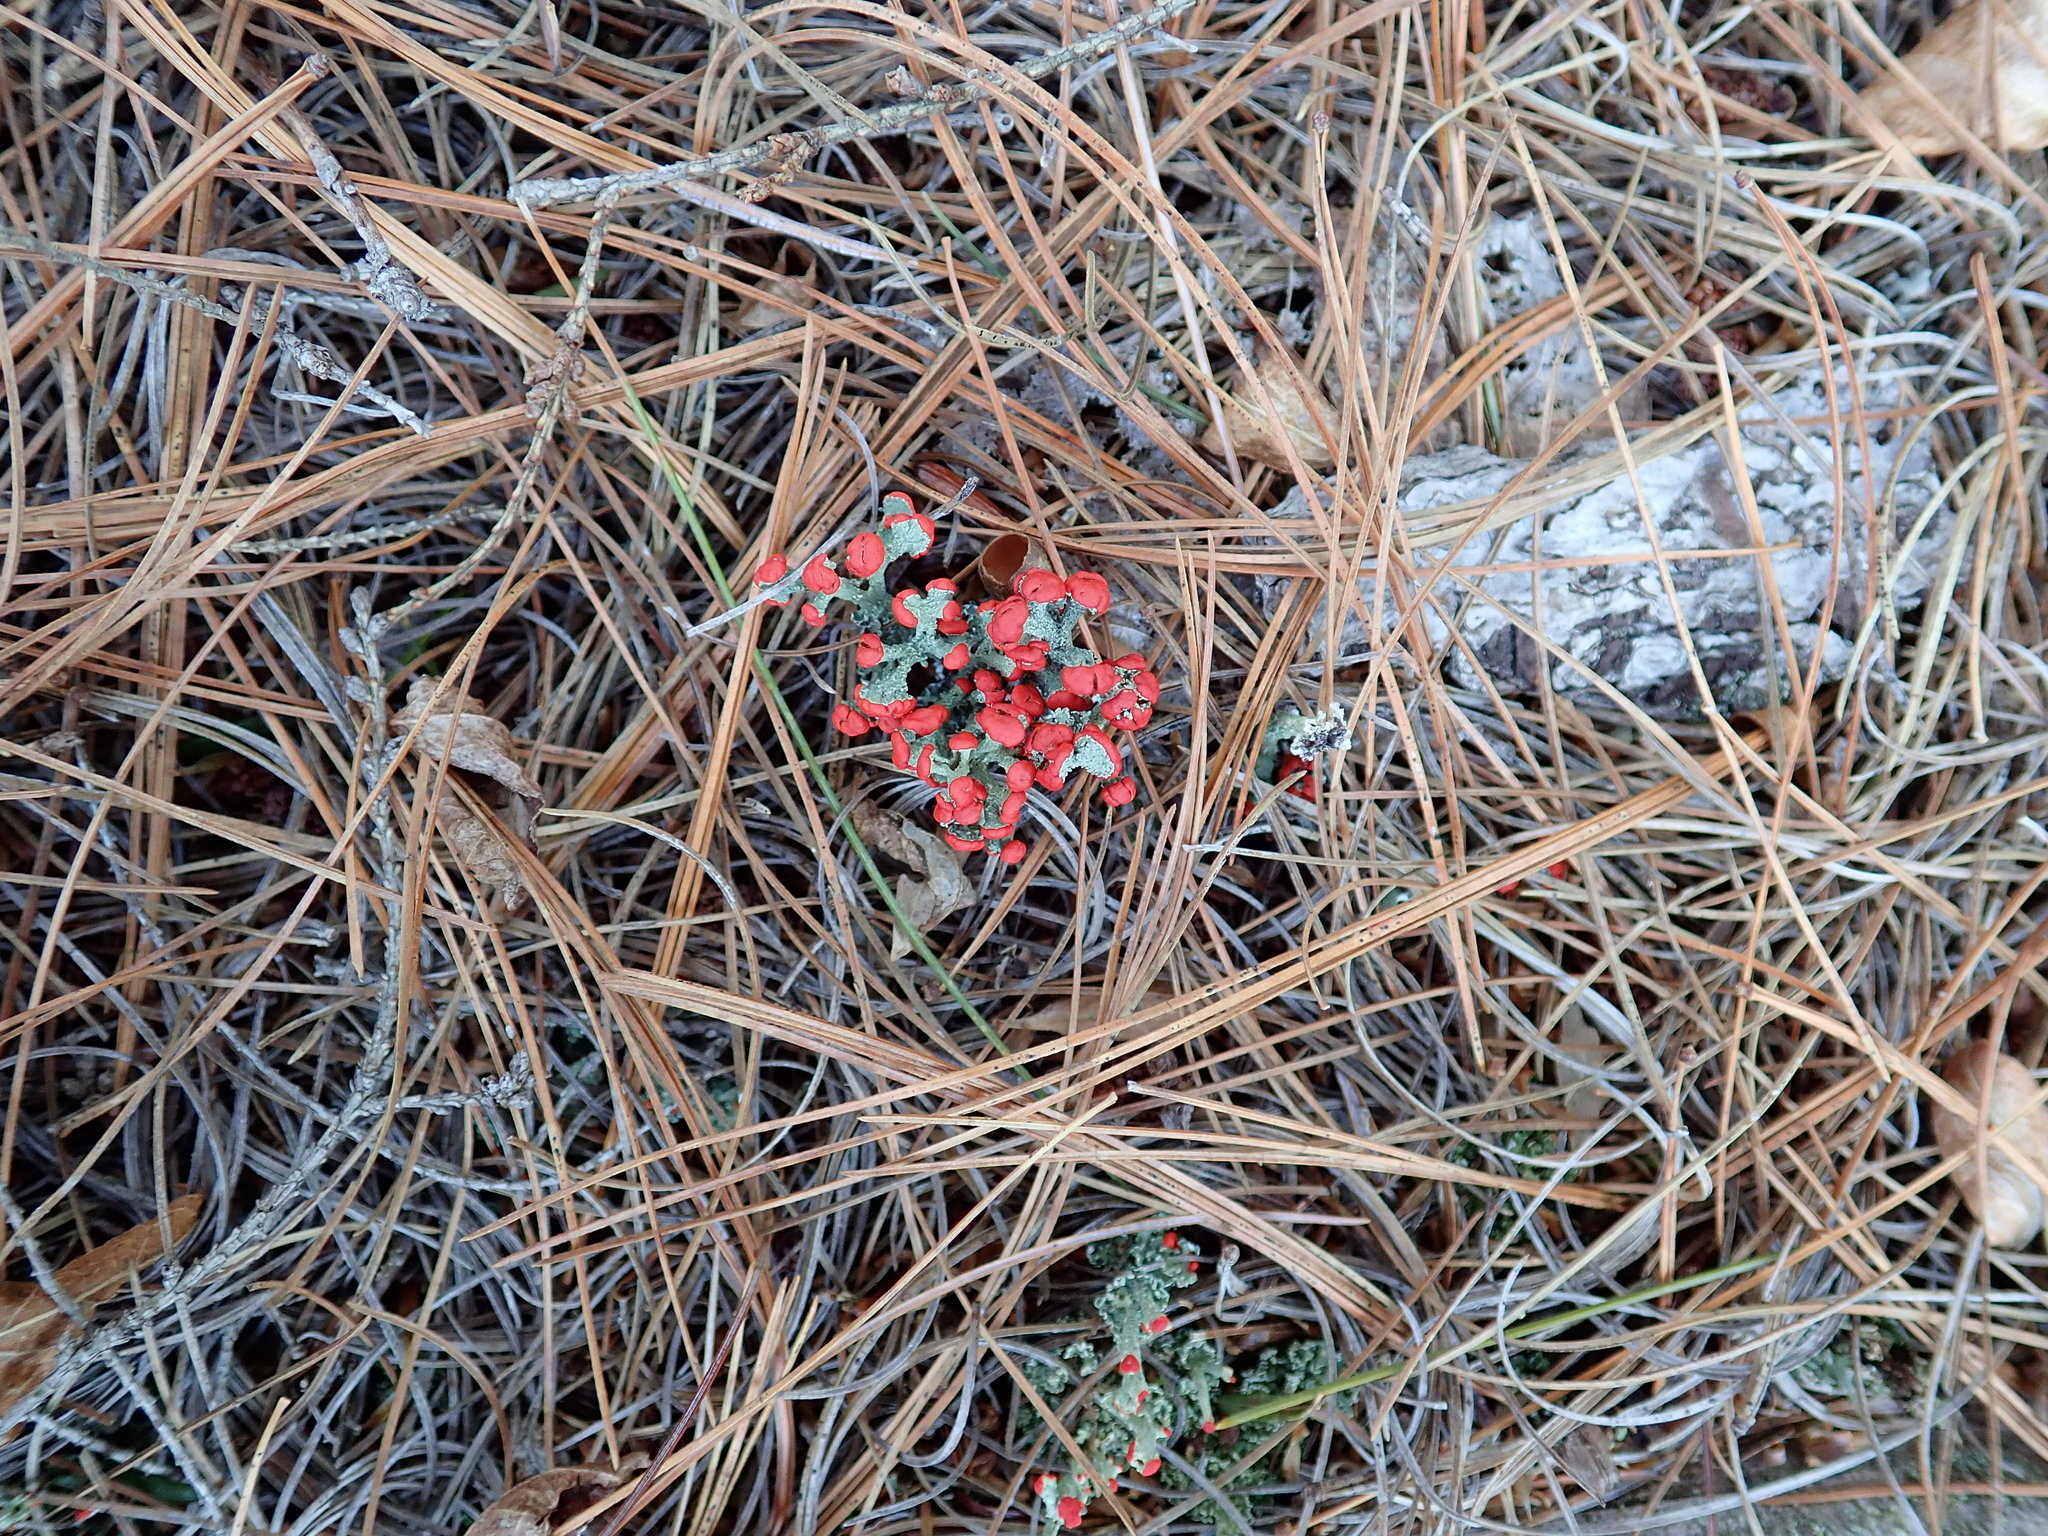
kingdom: Fungi
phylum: Ascomycota
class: Lecanoromycetes
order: Lecanorales
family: Cladoniaceae
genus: Cladonia
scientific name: Cladonia cristatella
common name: British soldier lichen
